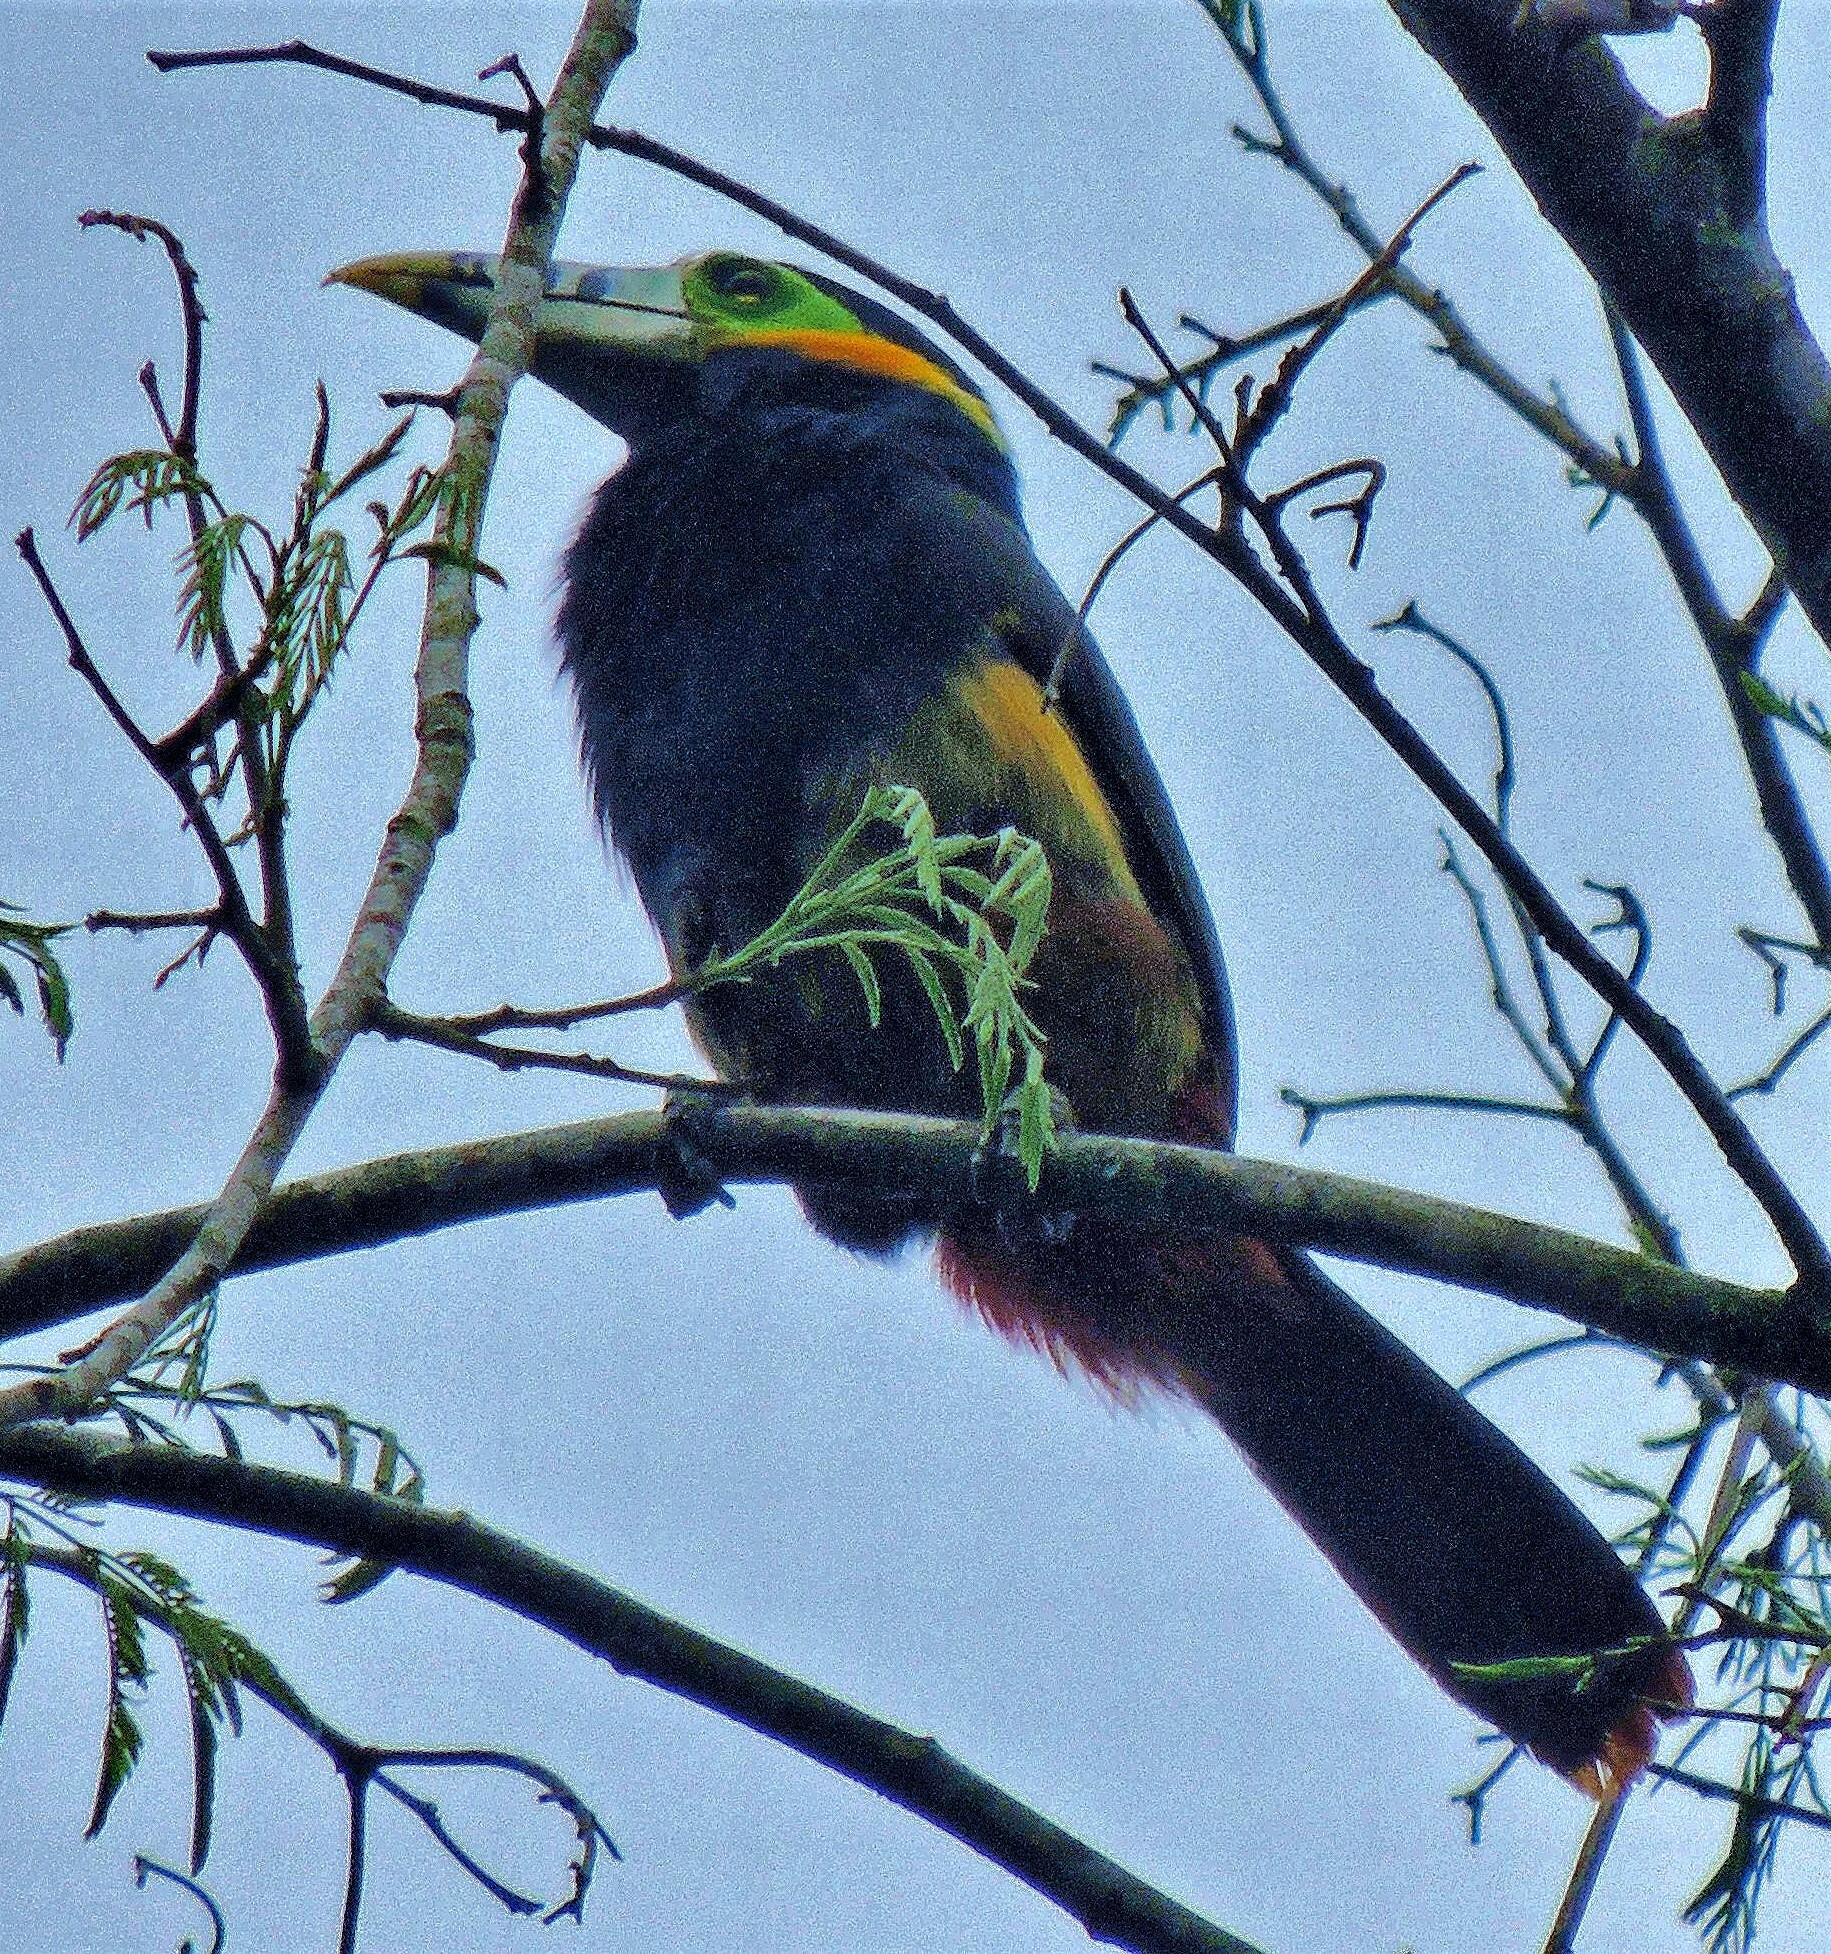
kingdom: Animalia
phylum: Chordata
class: Aves
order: Piciformes
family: Ramphastidae
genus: Selenidera
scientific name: Selenidera maculirostris
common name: Spot-billed toucanet
